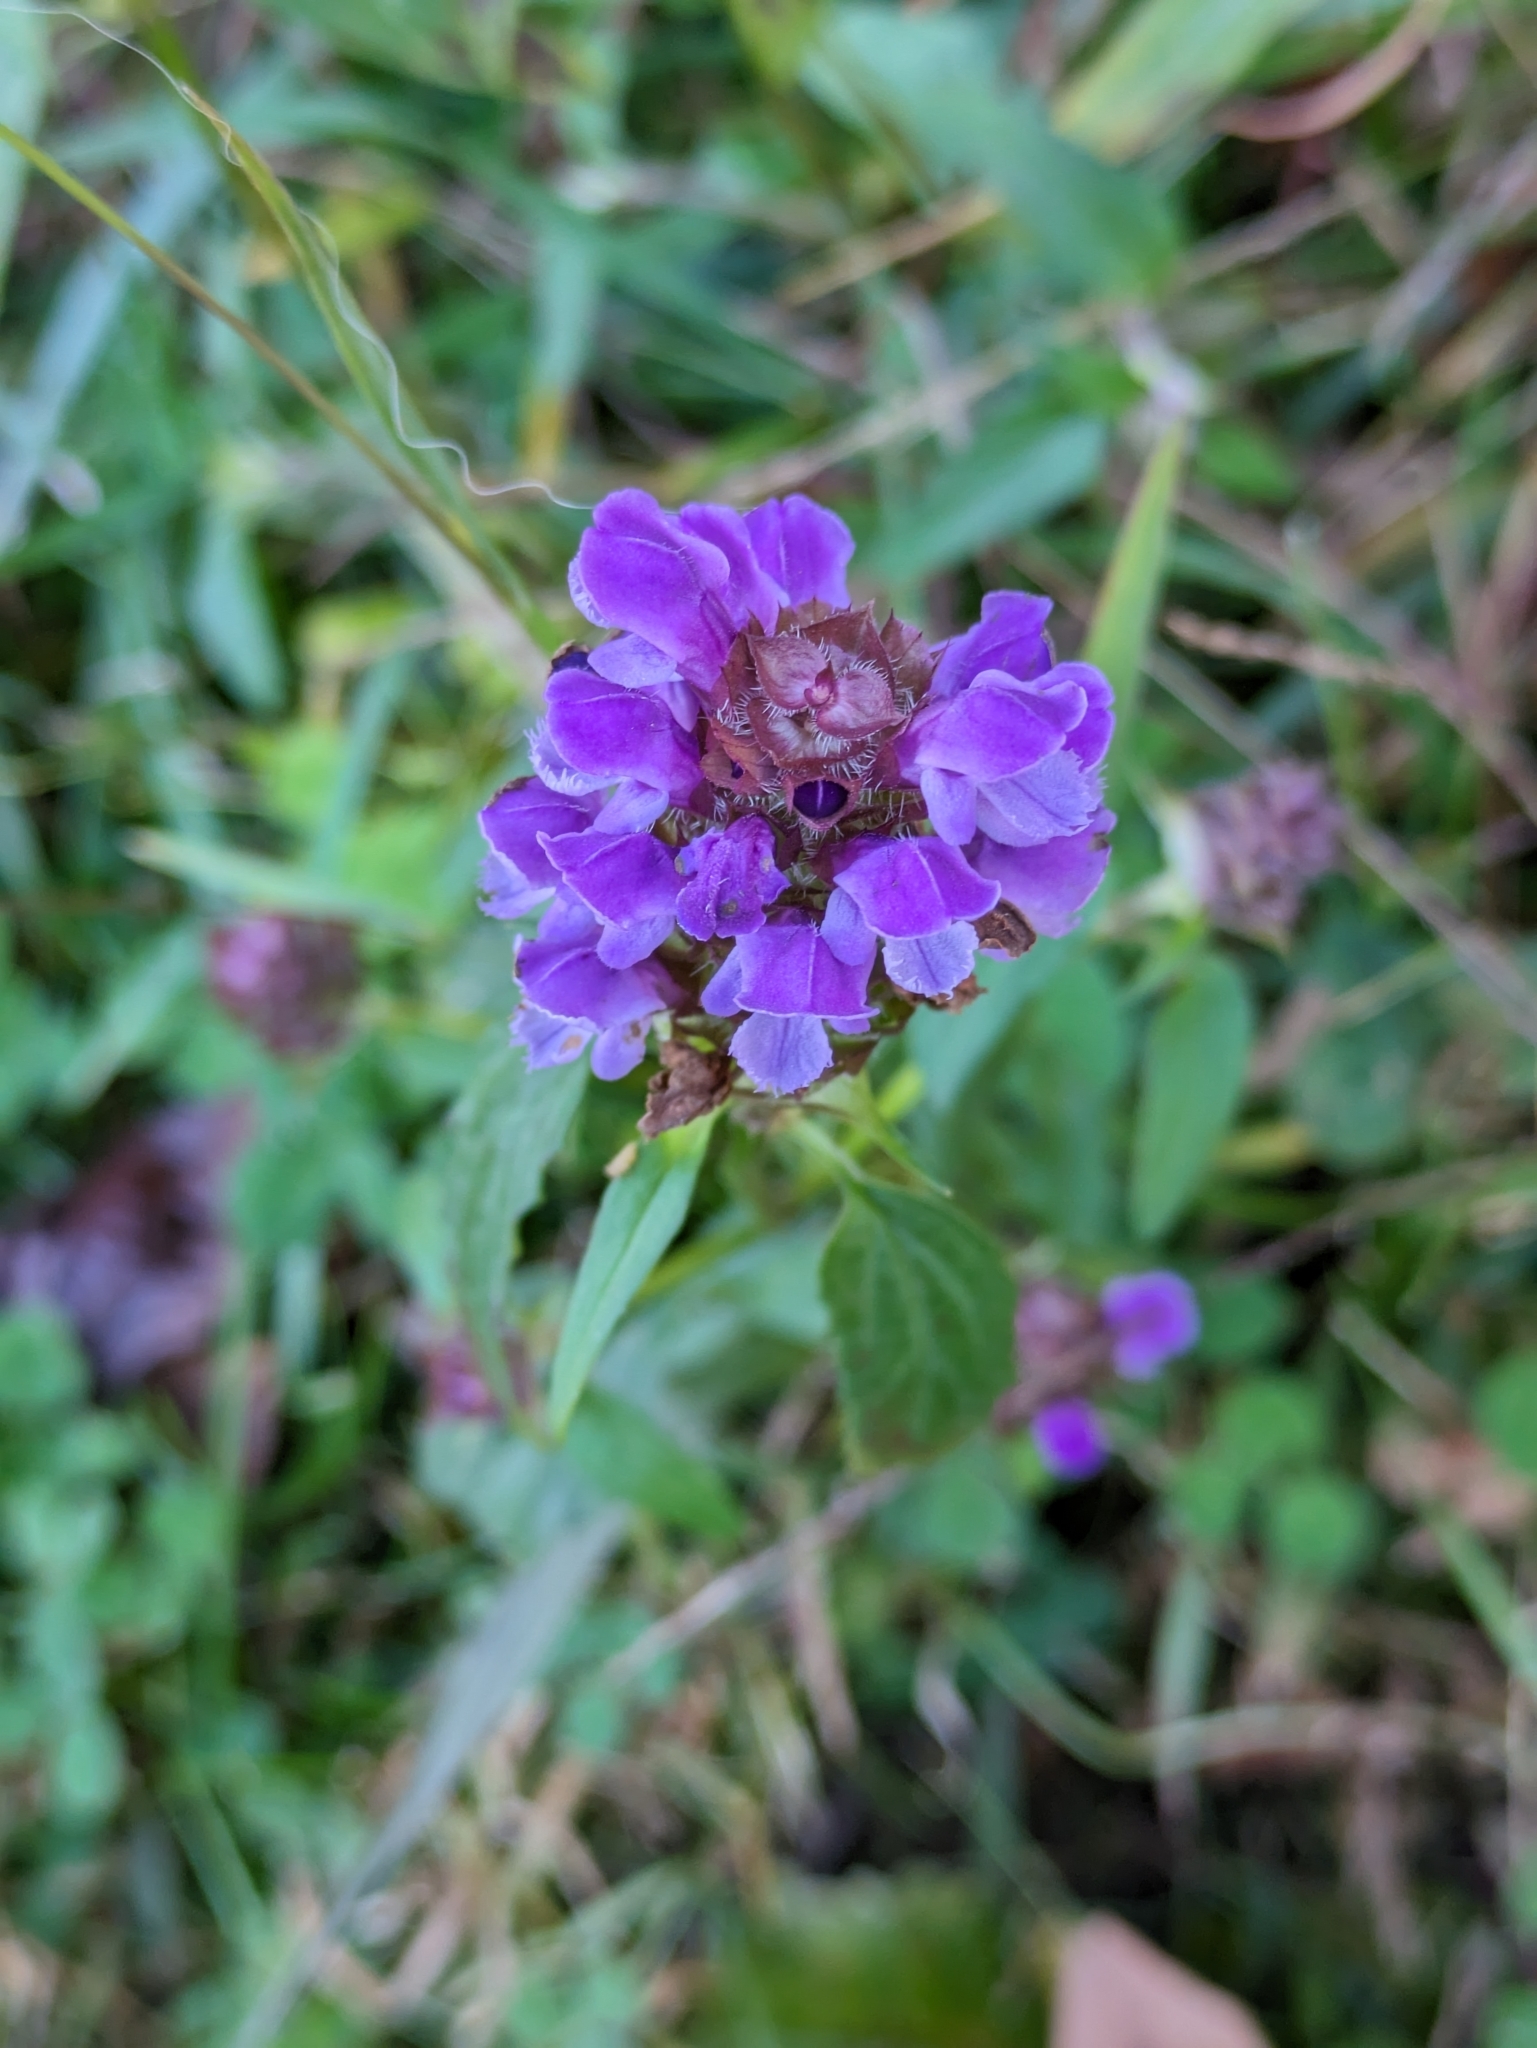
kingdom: Plantae
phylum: Tracheophyta
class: Magnoliopsida
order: Lamiales
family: Lamiaceae
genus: Prunella
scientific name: Prunella vulgaris
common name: Heal-all
